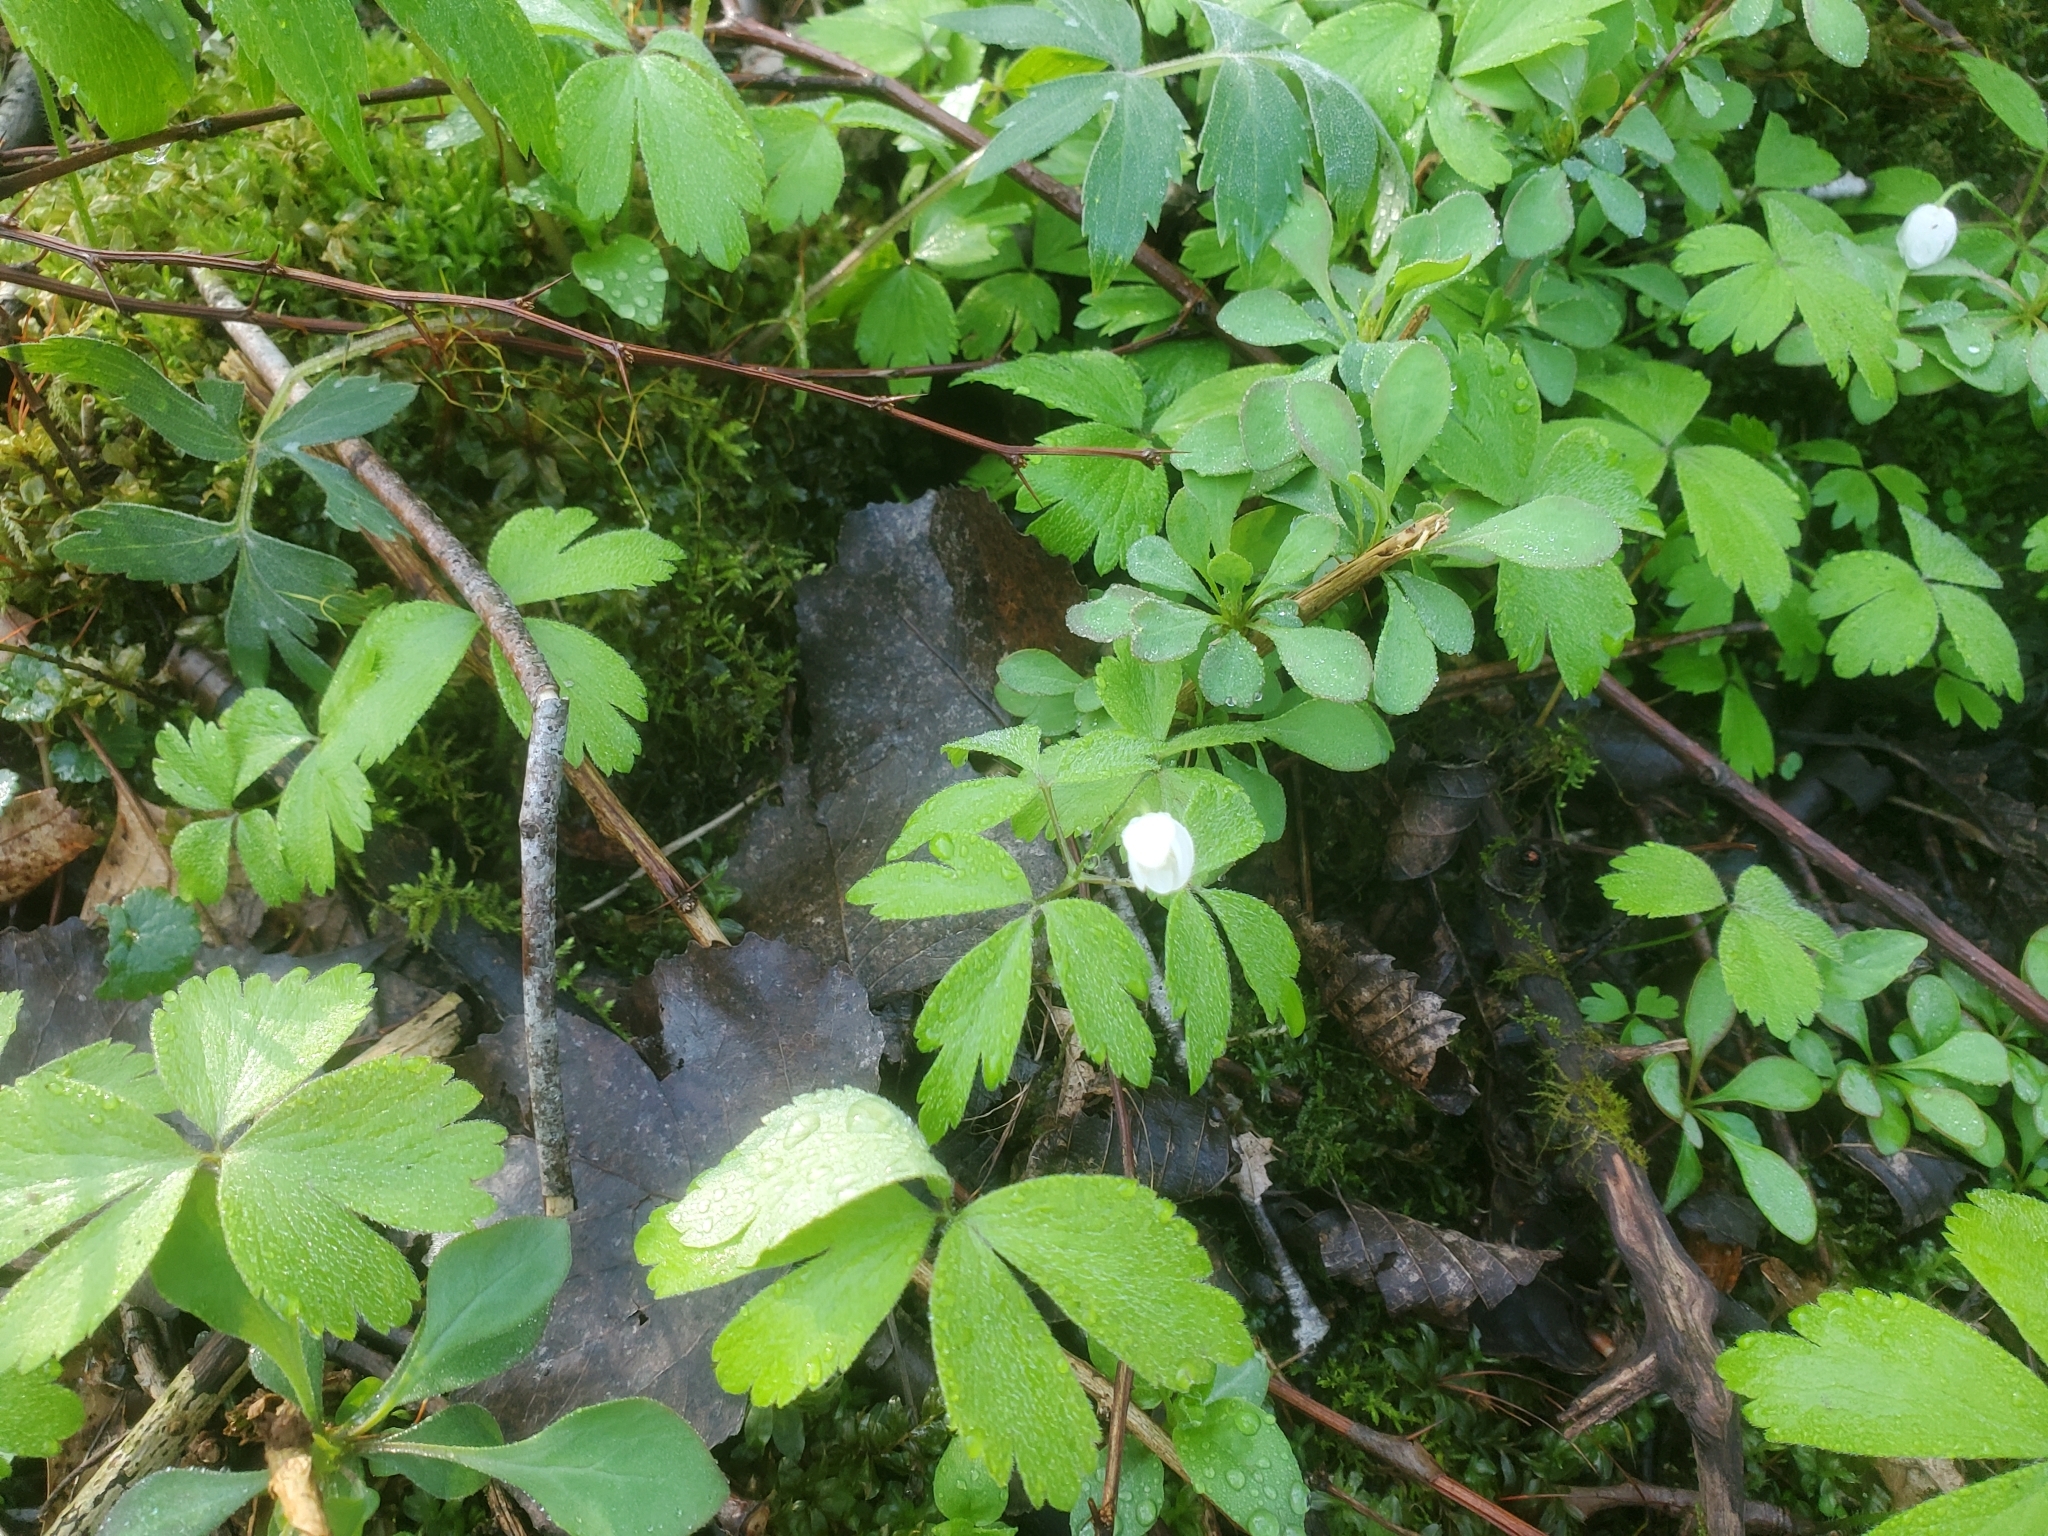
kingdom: Plantae
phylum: Tracheophyta
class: Magnoliopsida
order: Ranunculales
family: Ranunculaceae
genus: Anemone
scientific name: Anemone quinquefolia
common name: Wood anemone
